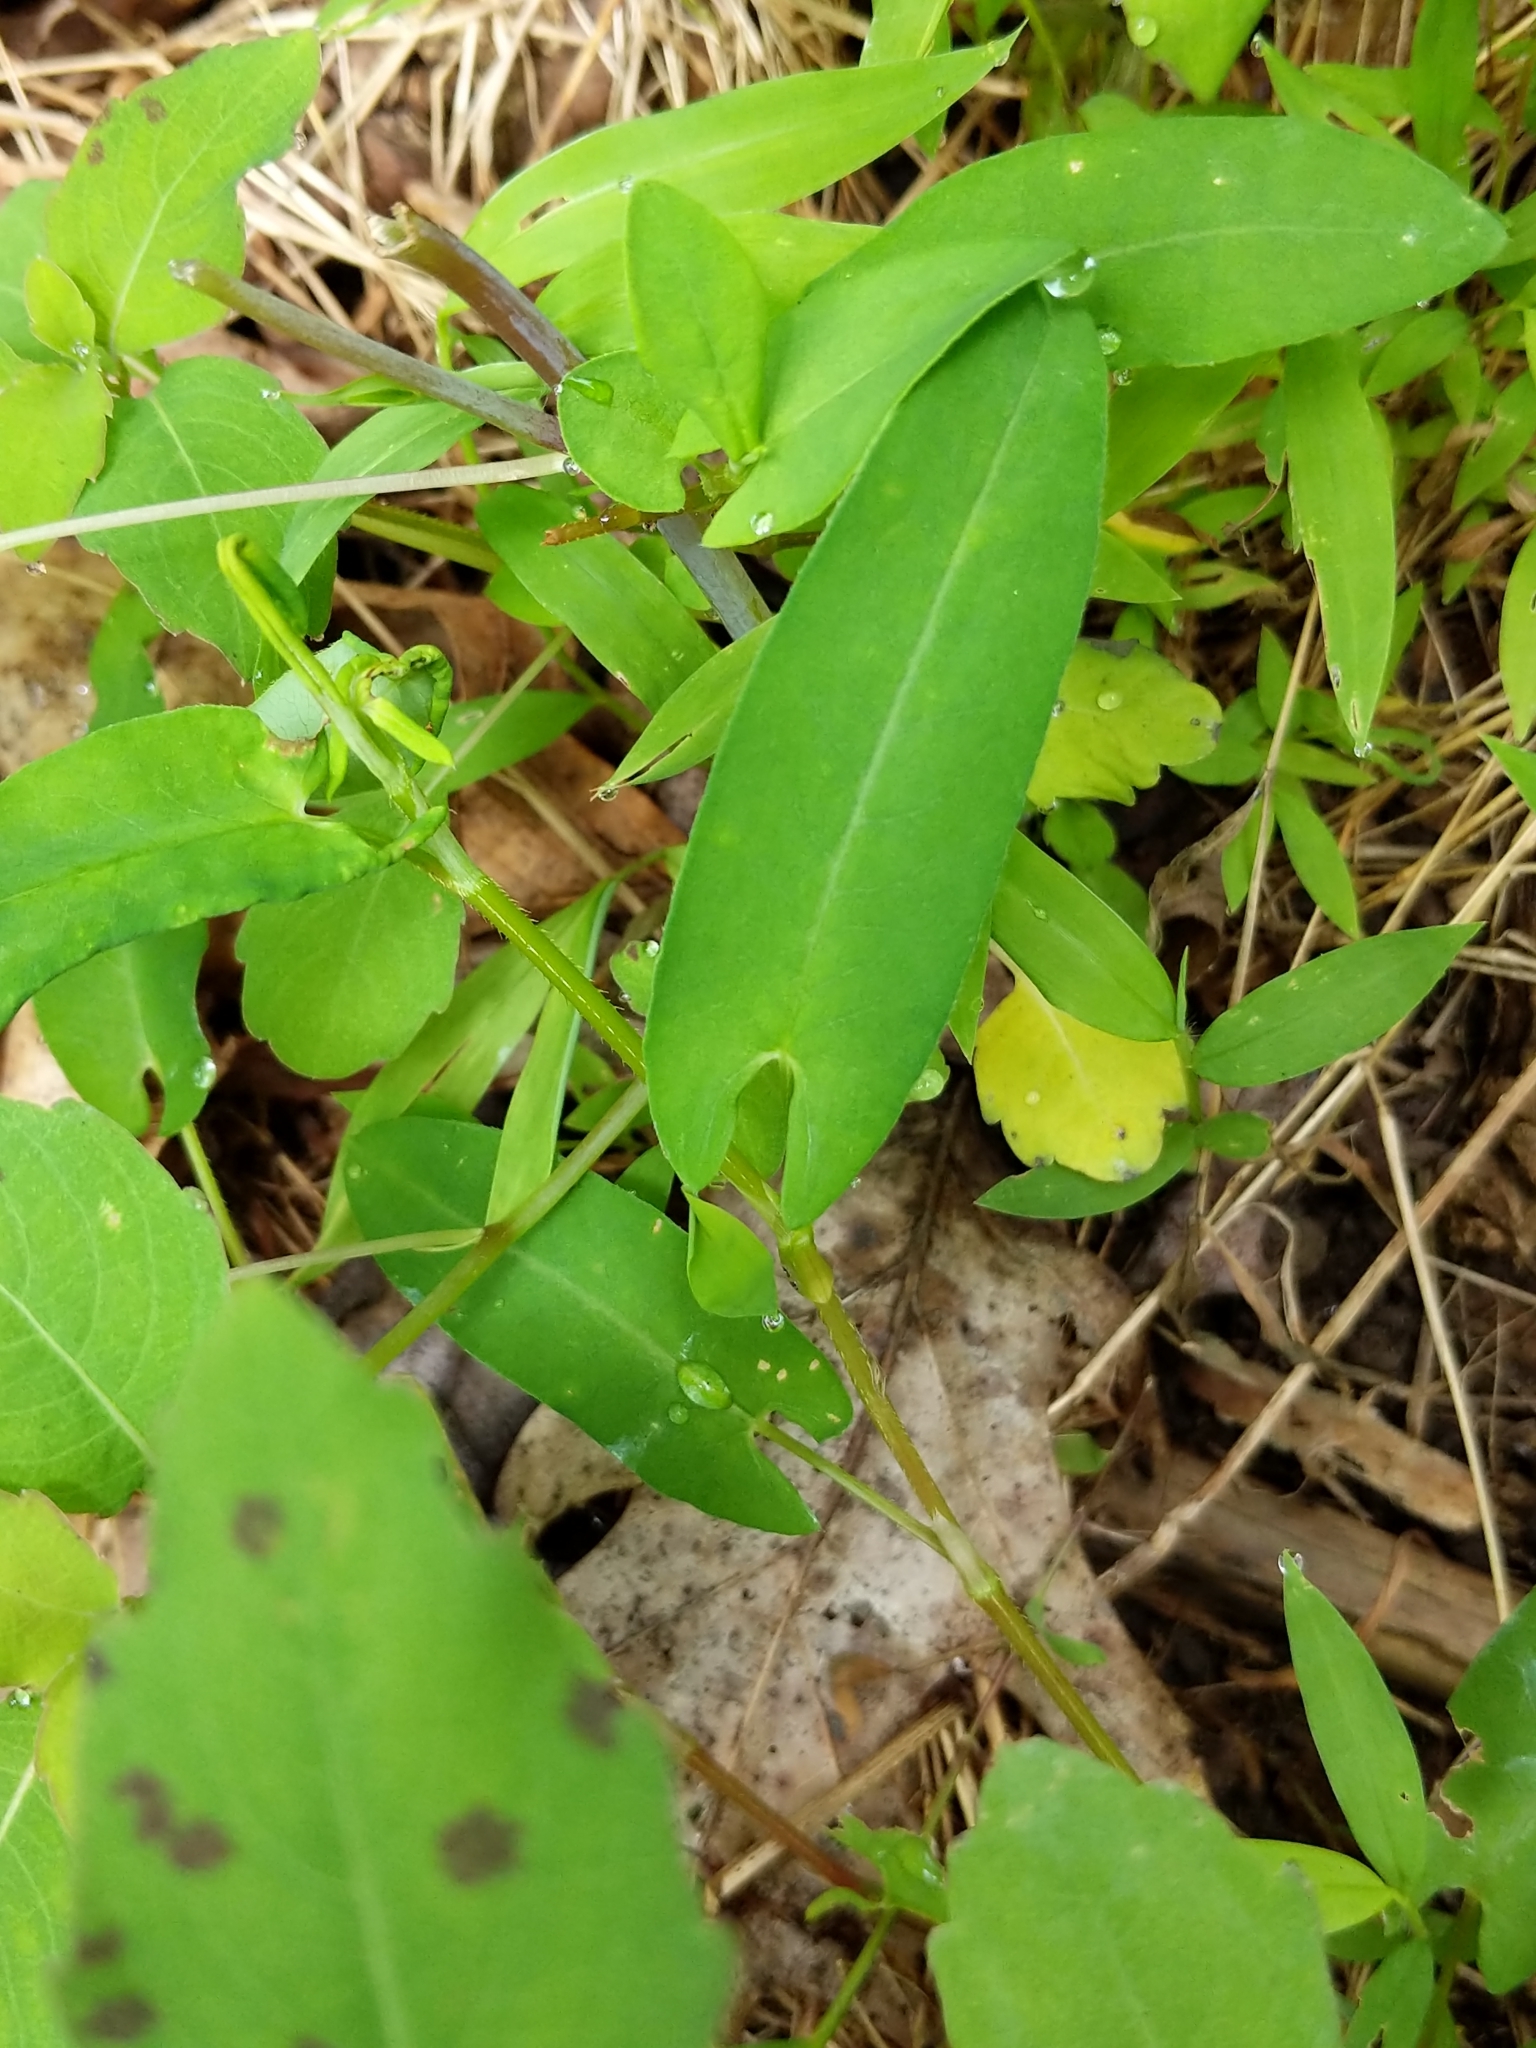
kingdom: Plantae
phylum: Tracheophyta
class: Magnoliopsida
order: Caryophyllales
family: Polygonaceae
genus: Persicaria
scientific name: Persicaria sagittata
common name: American tearthumb
